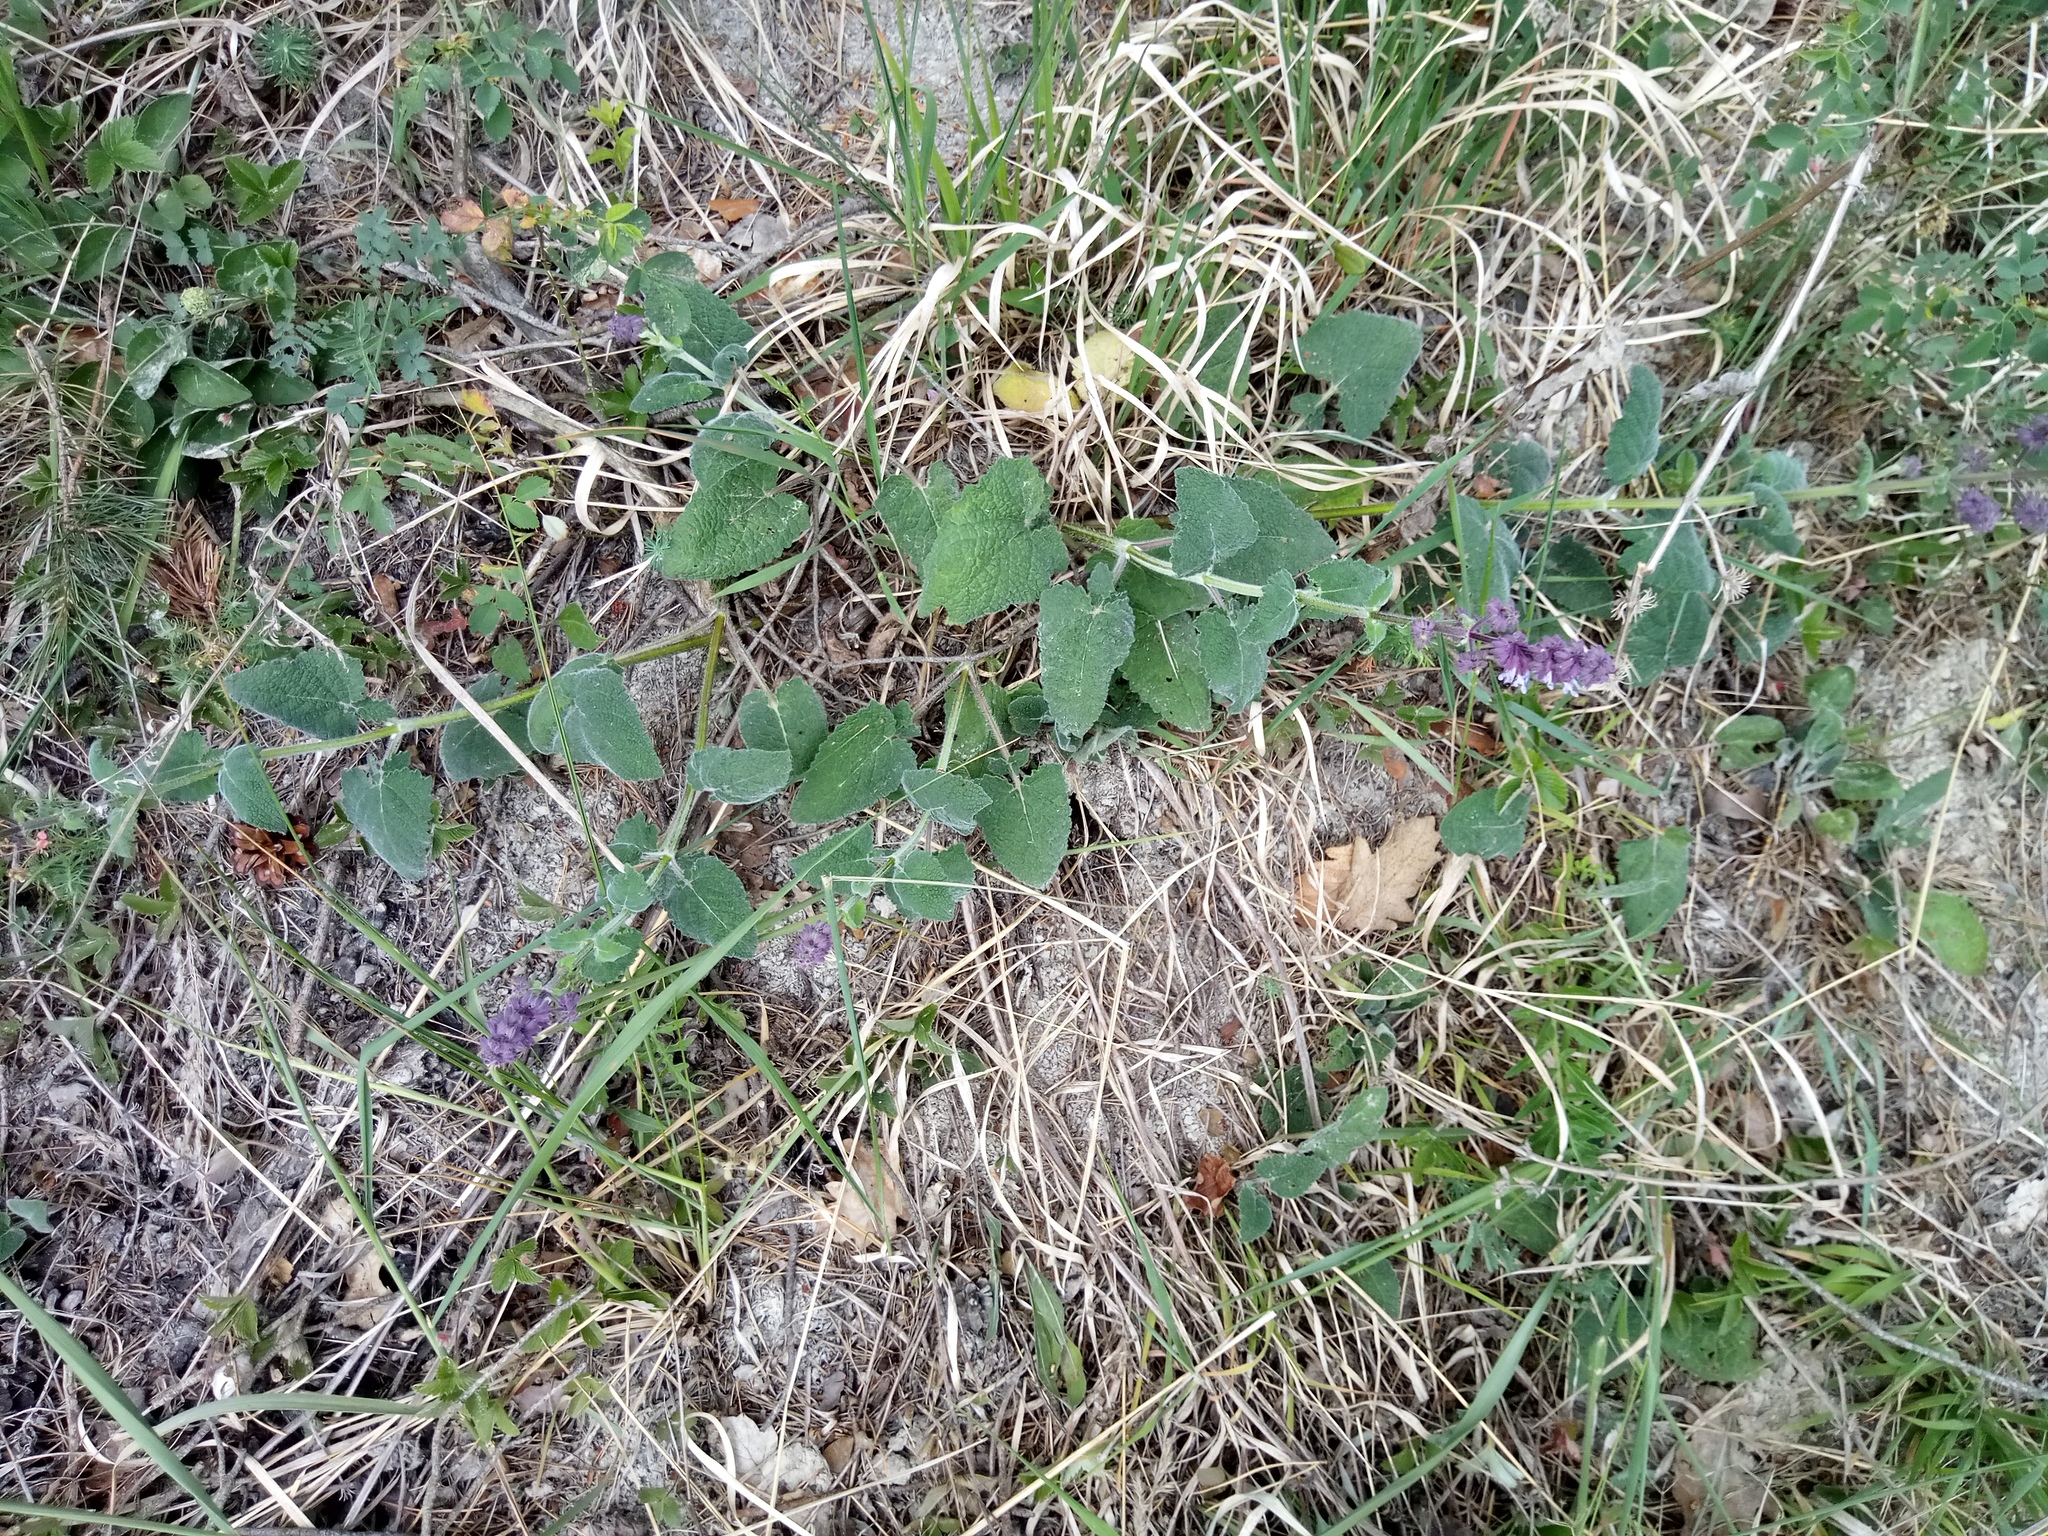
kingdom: Plantae
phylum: Tracheophyta
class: Magnoliopsida
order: Lamiales
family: Lamiaceae
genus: Salvia
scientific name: Salvia verticillata
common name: Whorled clary
